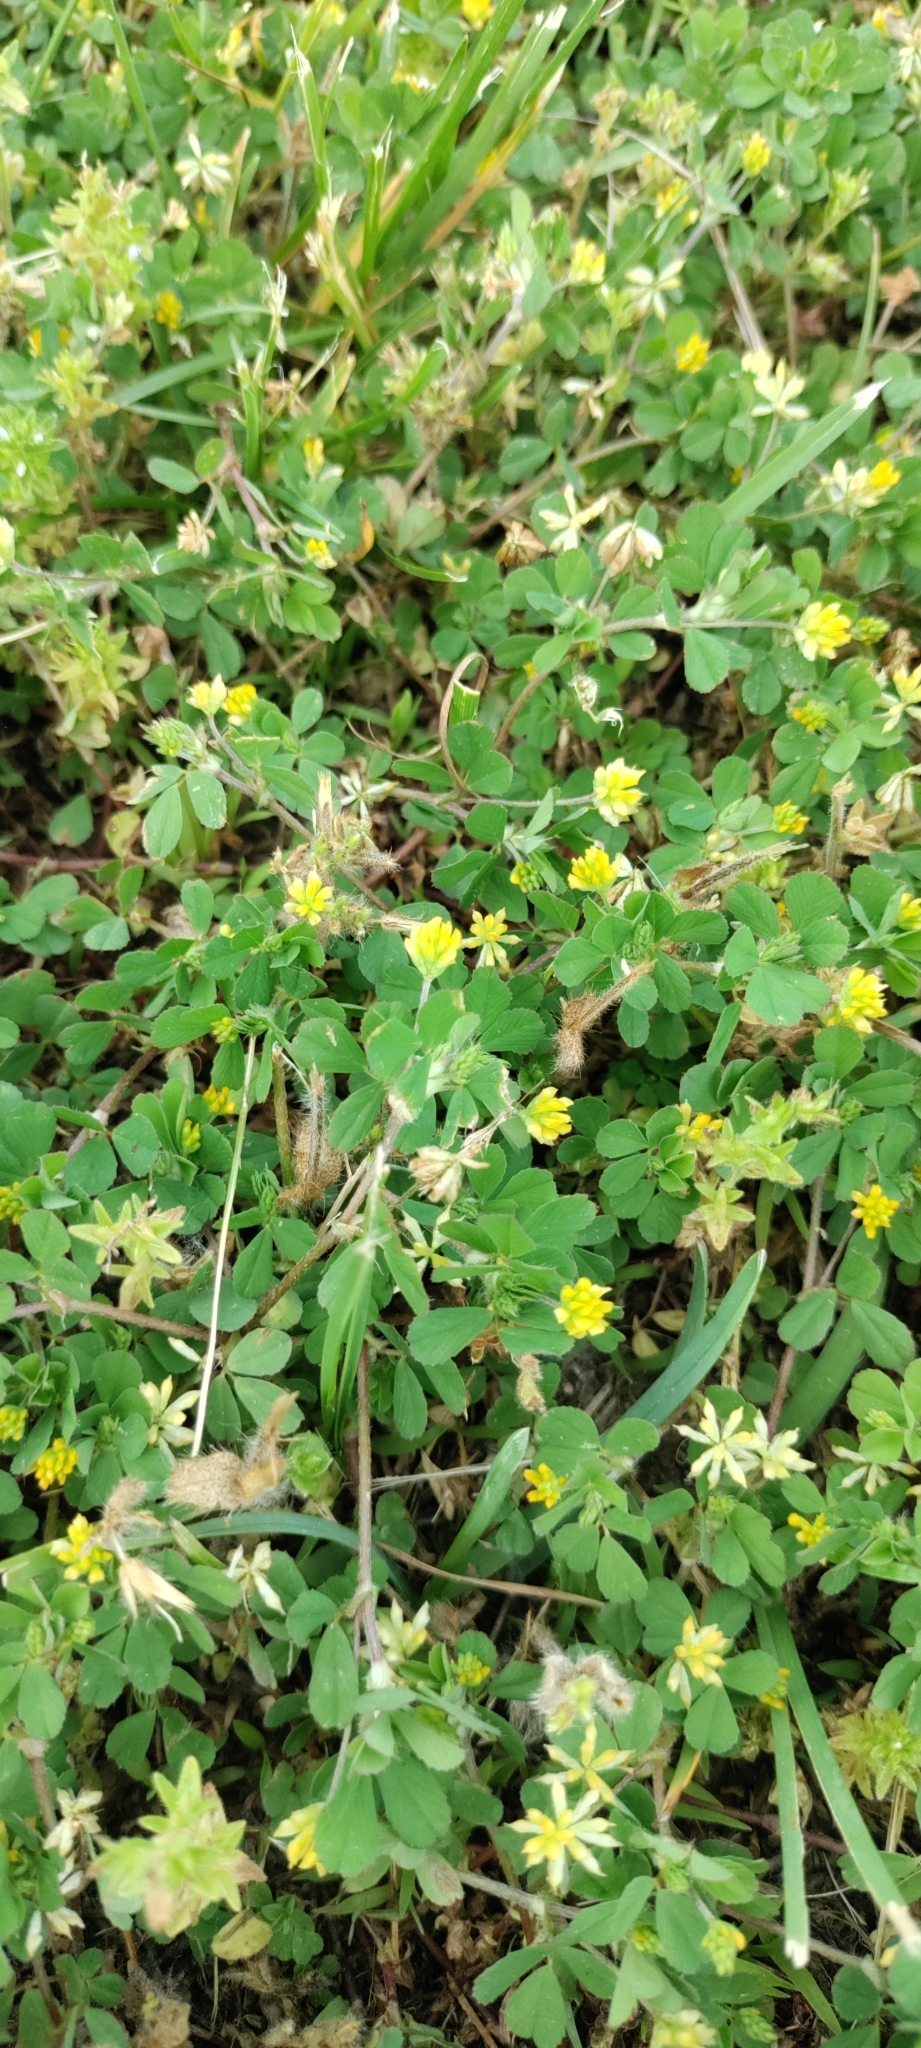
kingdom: Plantae
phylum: Tracheophyta
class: Magnoliopsida
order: Fabales
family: Fabaceae
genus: Trifolium
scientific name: Trifolium dubium
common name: Suckling clover
